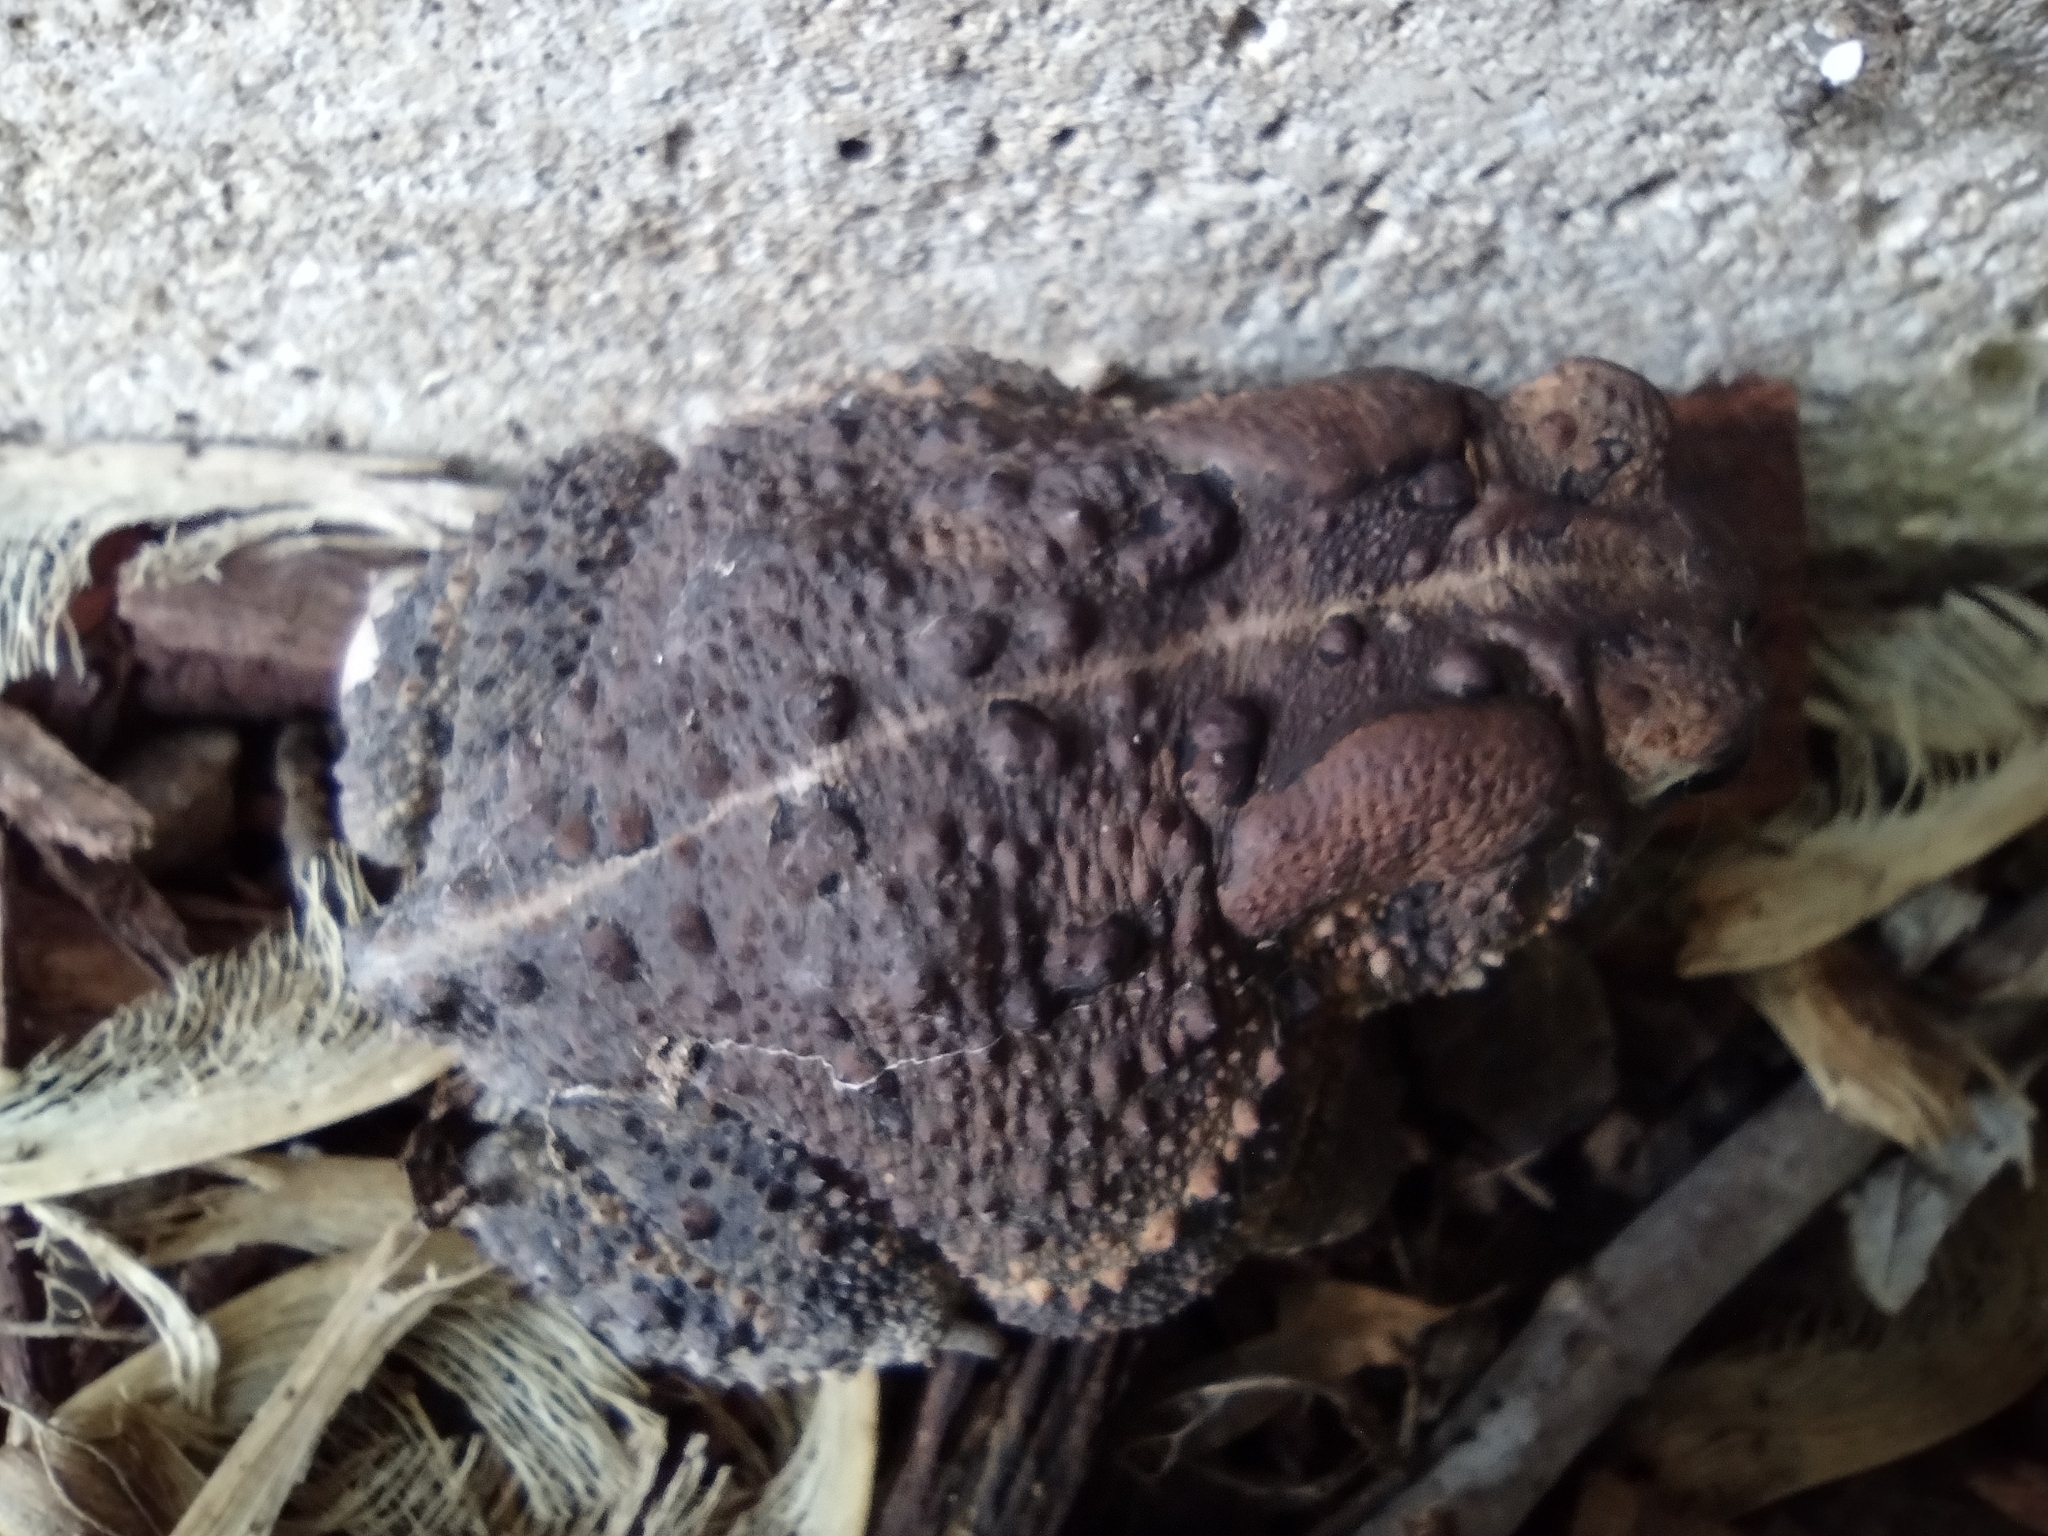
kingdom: Animalia
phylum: Chordata
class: Amphibia
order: Anura
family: Bufonidae
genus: Anaxyrus
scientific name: Anaxyrus americanus
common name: American toad
